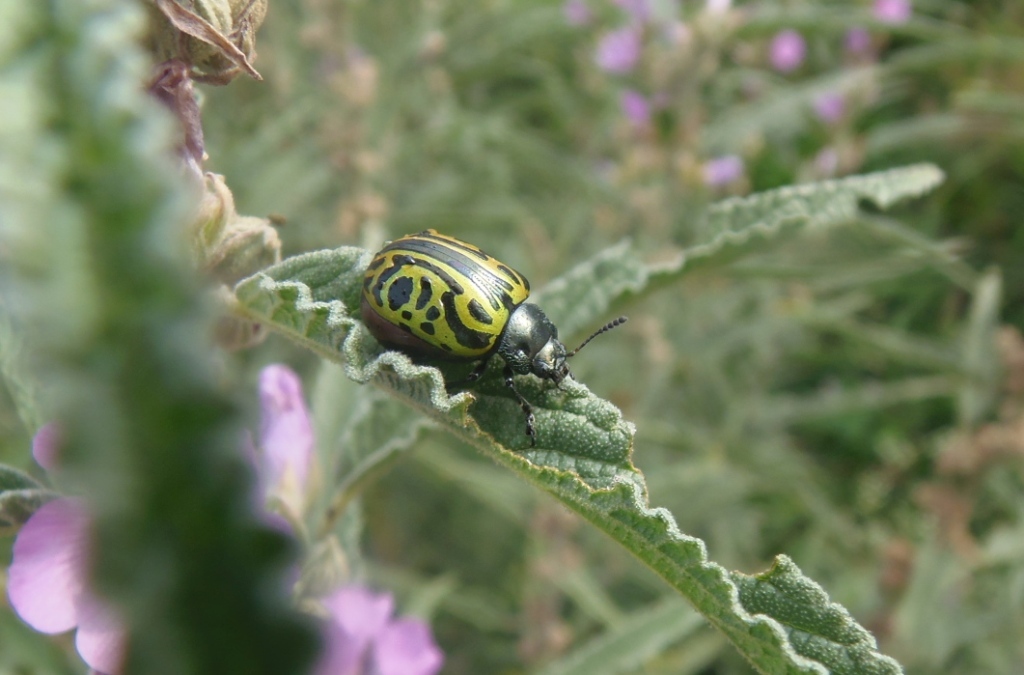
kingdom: Animalia
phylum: Arthropoda
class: Insecta
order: Coleoptera
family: Chrysomelidae
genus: Calligrapha
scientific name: Calligrapha mexicana
